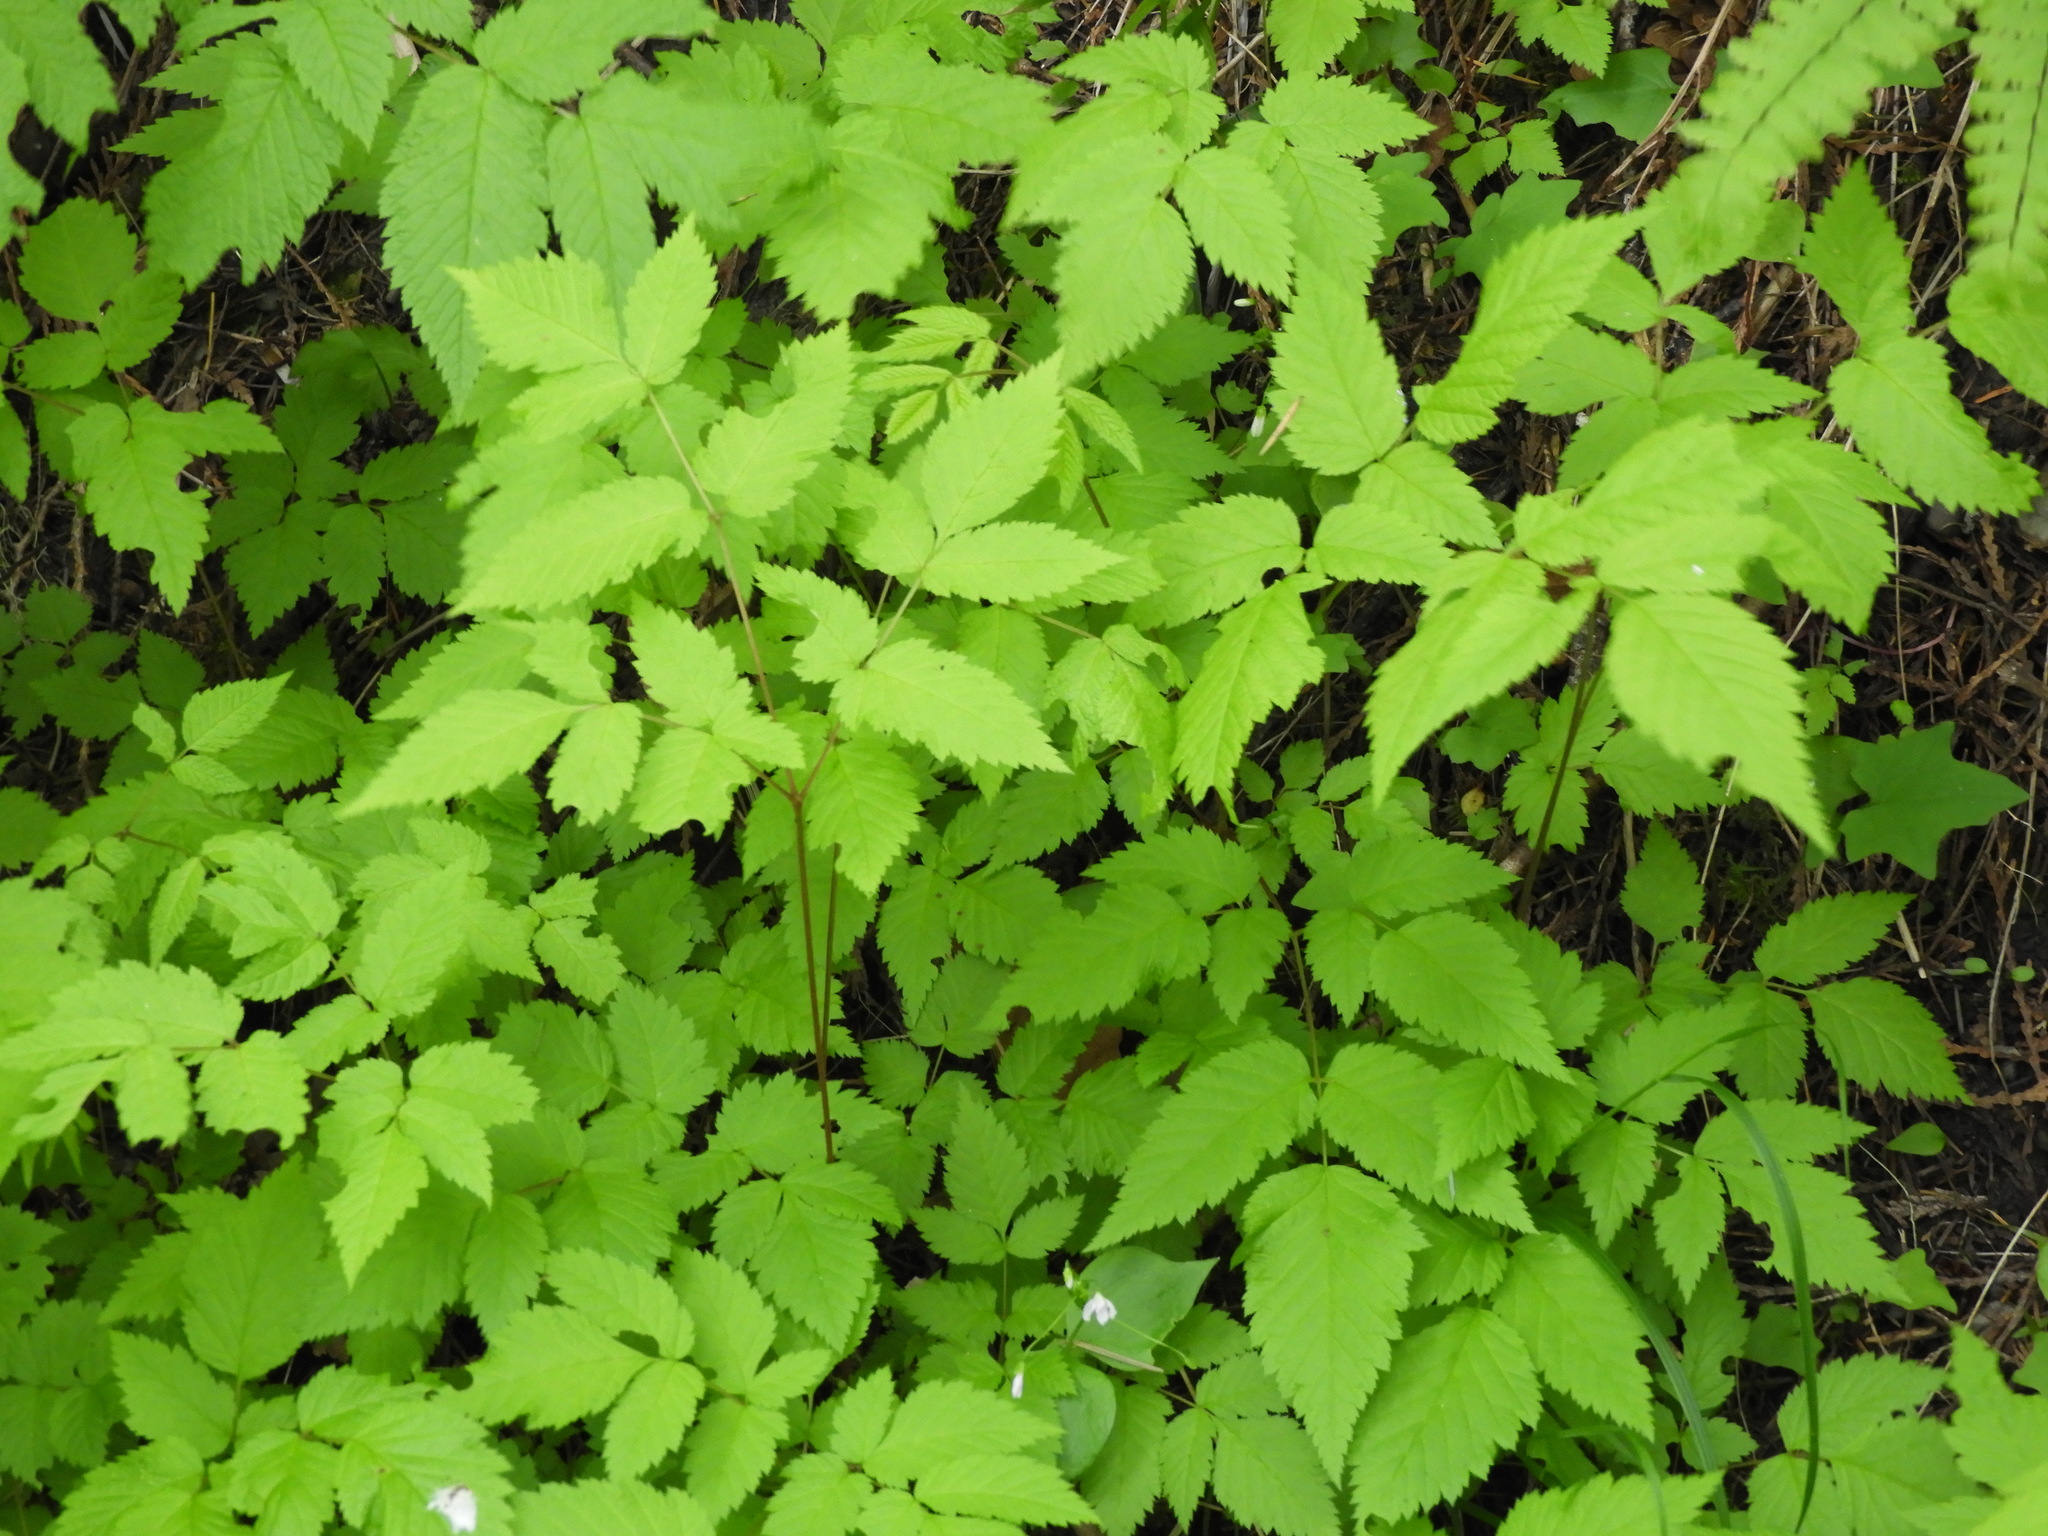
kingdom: Plantae
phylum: Tracheophyta
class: Magnoliopsida
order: Rosales
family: Rosaceae
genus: Aruncus
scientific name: Aruncus dioicus
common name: Buck's-beard
